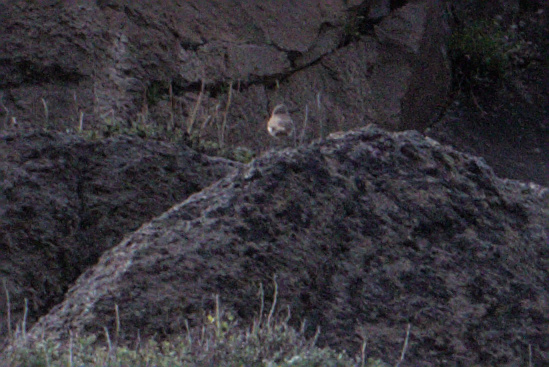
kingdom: Animalia
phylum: Chordata
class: Aves
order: Passeriformes
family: Troglodytidae
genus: Salpinctes
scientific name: Salpinctes obsoletus
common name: Rock wren
